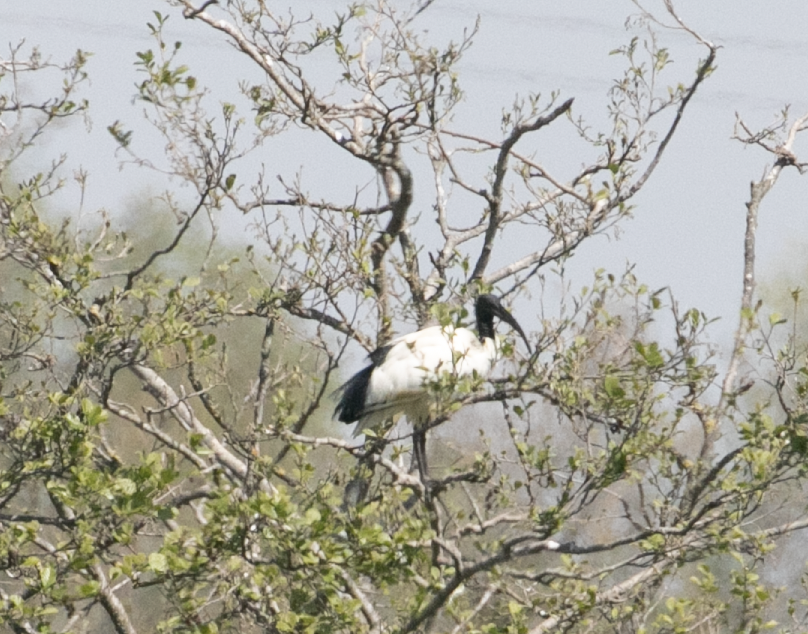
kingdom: Animalia
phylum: Chordata
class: Aves
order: Pelecaniformes
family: Threskiornithidae
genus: Threskiornis
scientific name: Threskiornis aethiopicus
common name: Sacred ibis
